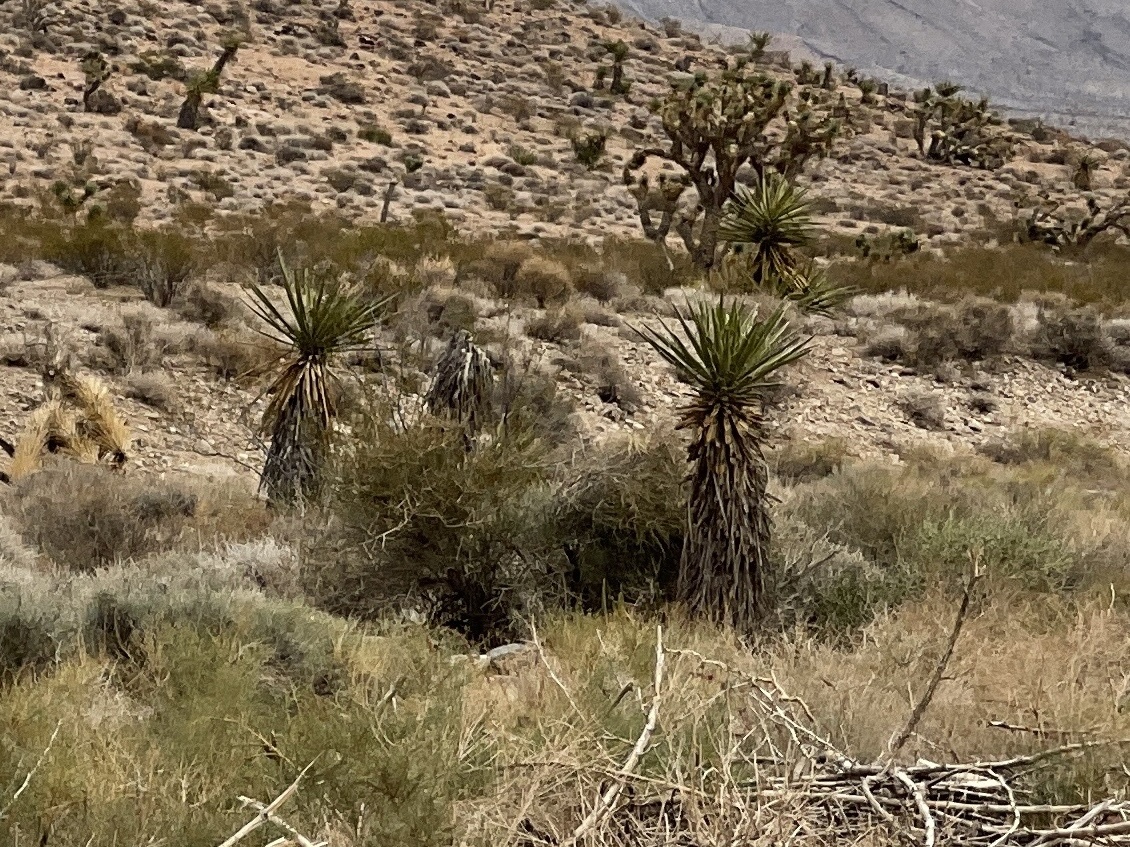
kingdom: Plantae
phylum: Tracheophyta
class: Liliopsida
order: Asparagales
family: Asparagaceae
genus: Yucca
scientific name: Yucca schidigera
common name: Mojave yucca
